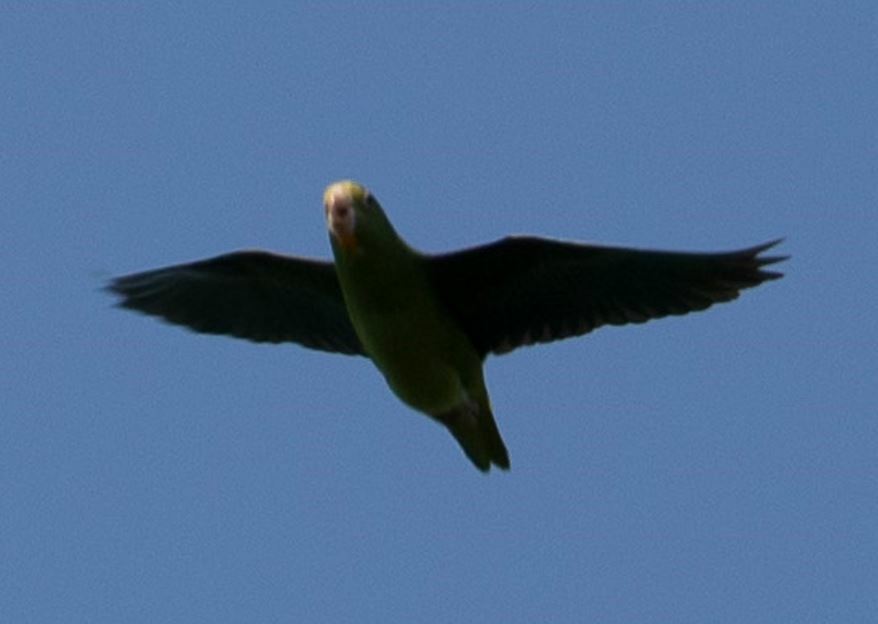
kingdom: Animalia
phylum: Chordata
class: Aves
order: Psittaciformes
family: Psittacidae
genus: Brotogeris
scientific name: Brotogeris cyanoptera
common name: Cobalt-winged parakeet
